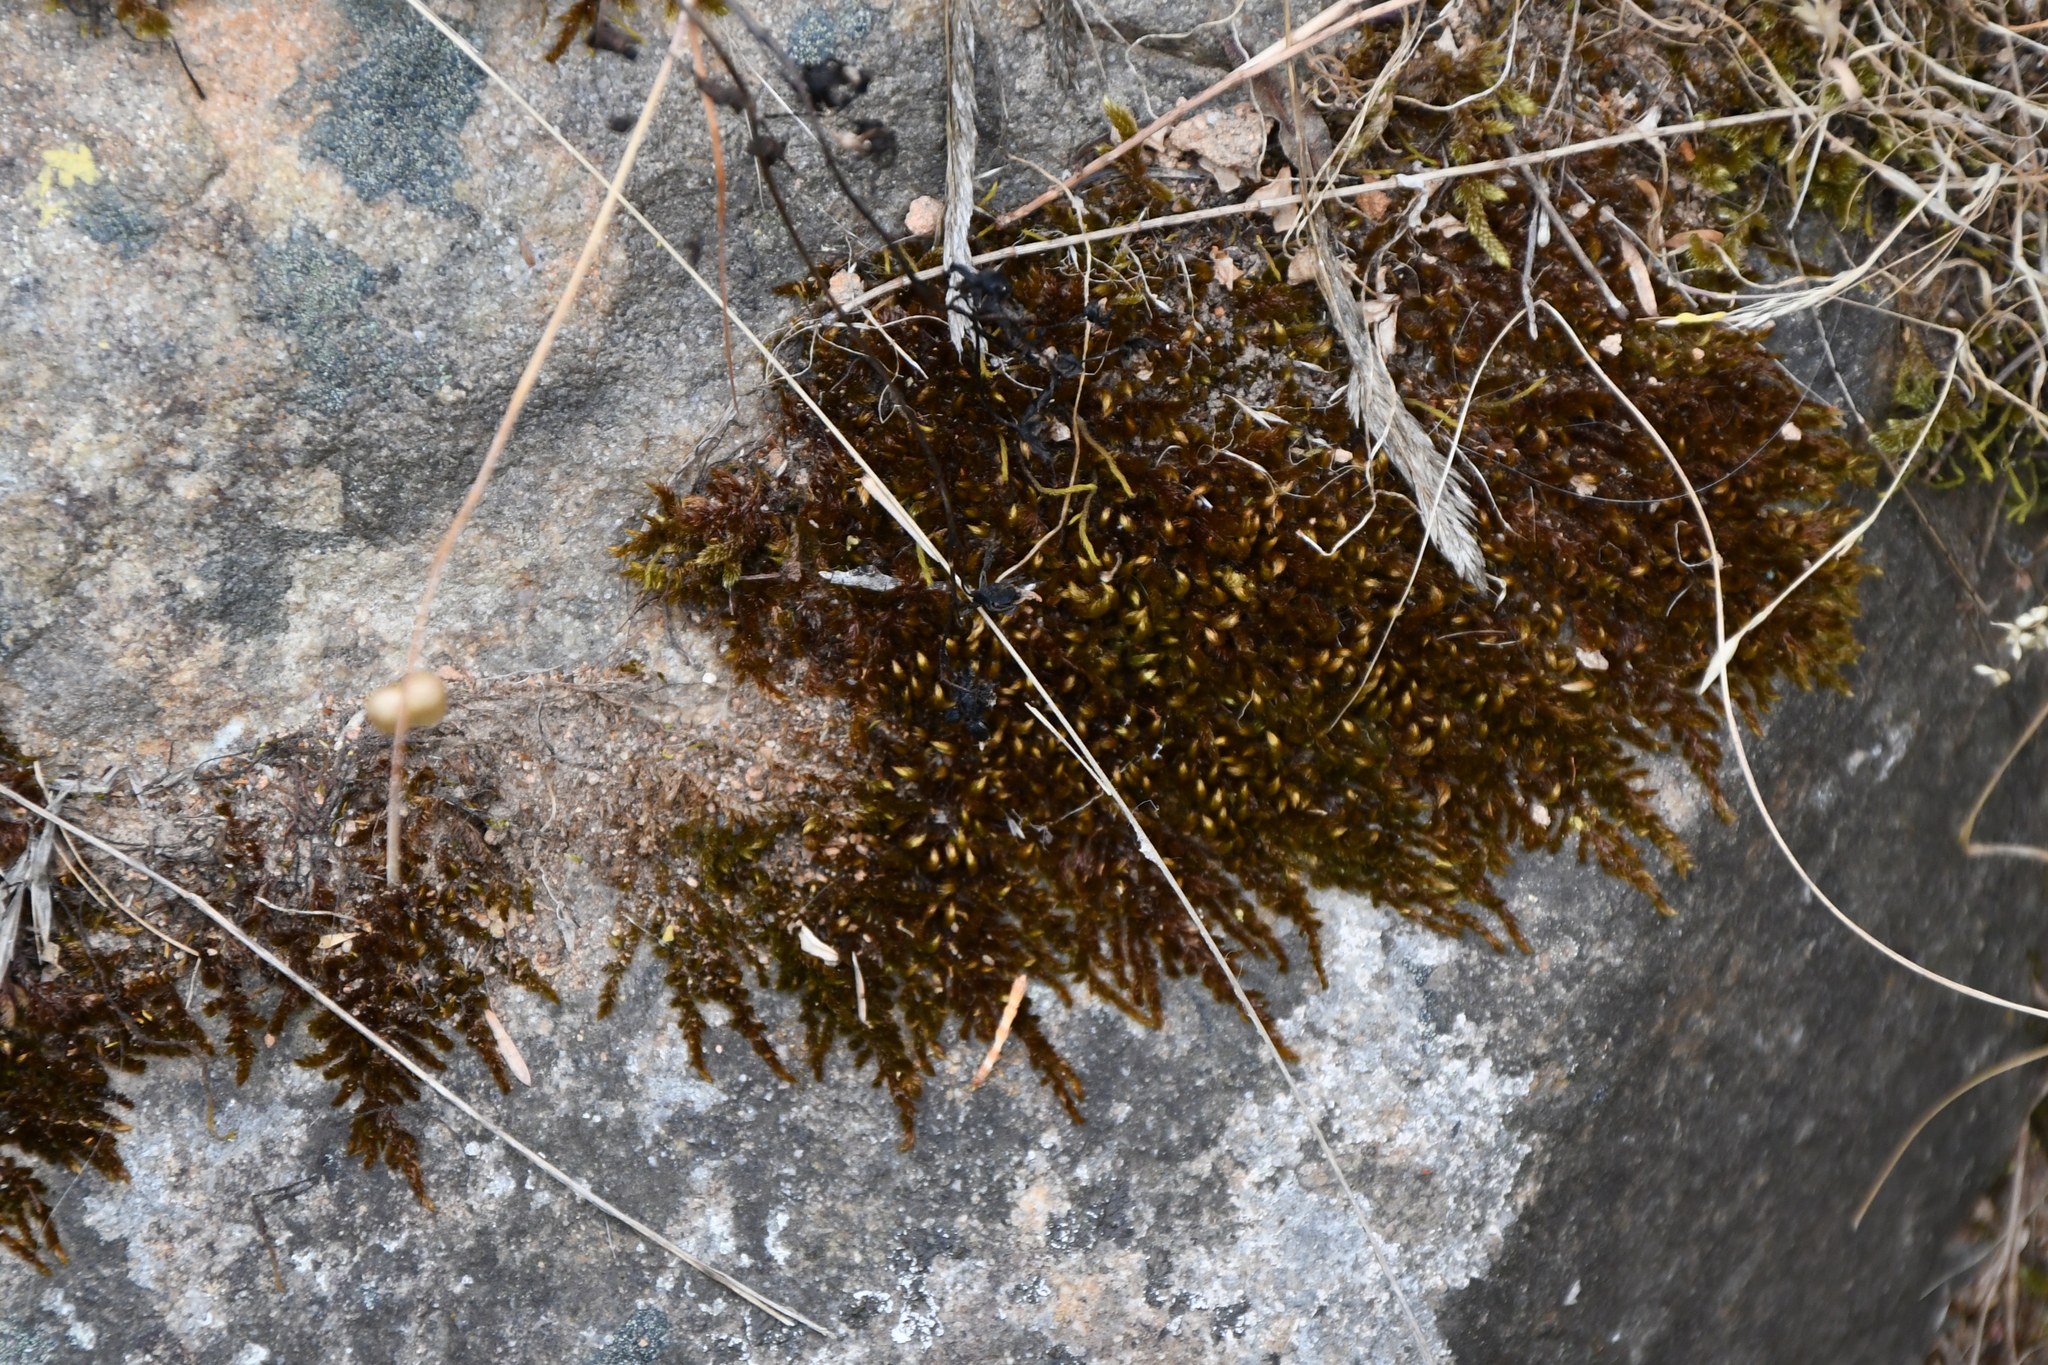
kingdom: Plantae
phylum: Bryophyta
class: Bryopsida
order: Hypnales
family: Sematophyllaceae
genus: Sematophyllum
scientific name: Sematophyllum homomallum
